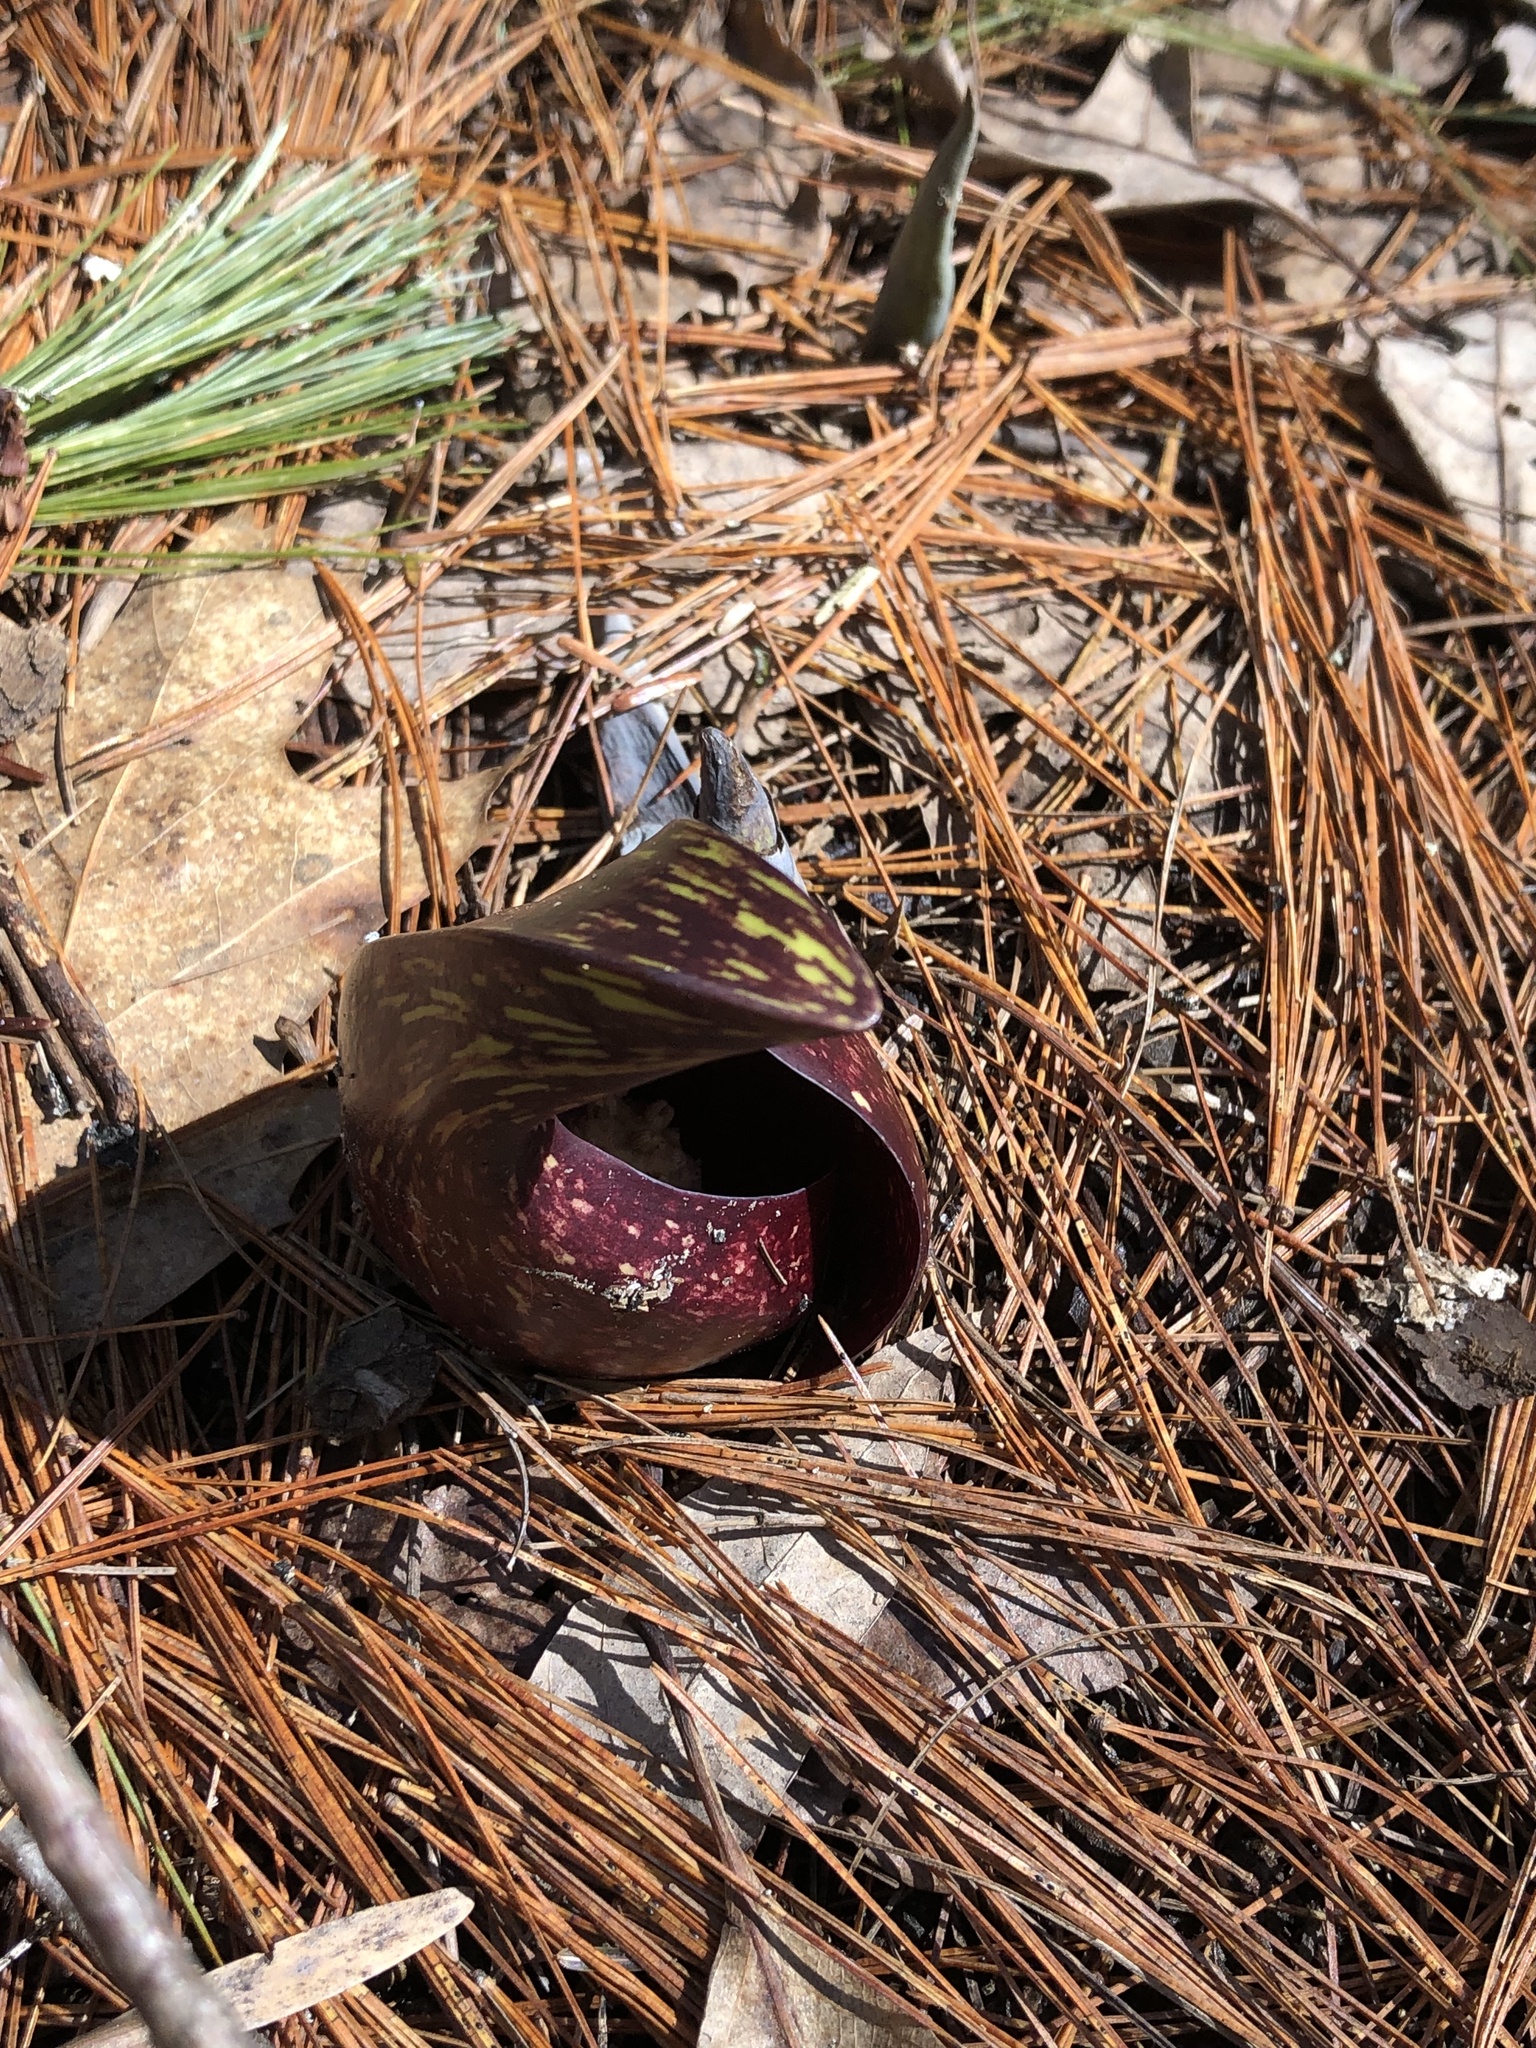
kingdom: Plantae
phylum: Tracheophyta
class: Liliopsida
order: Alismatales
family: Araceae
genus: Symplocarpus
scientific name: Symplocarpus foetidus
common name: Eastern skunk cabbage
